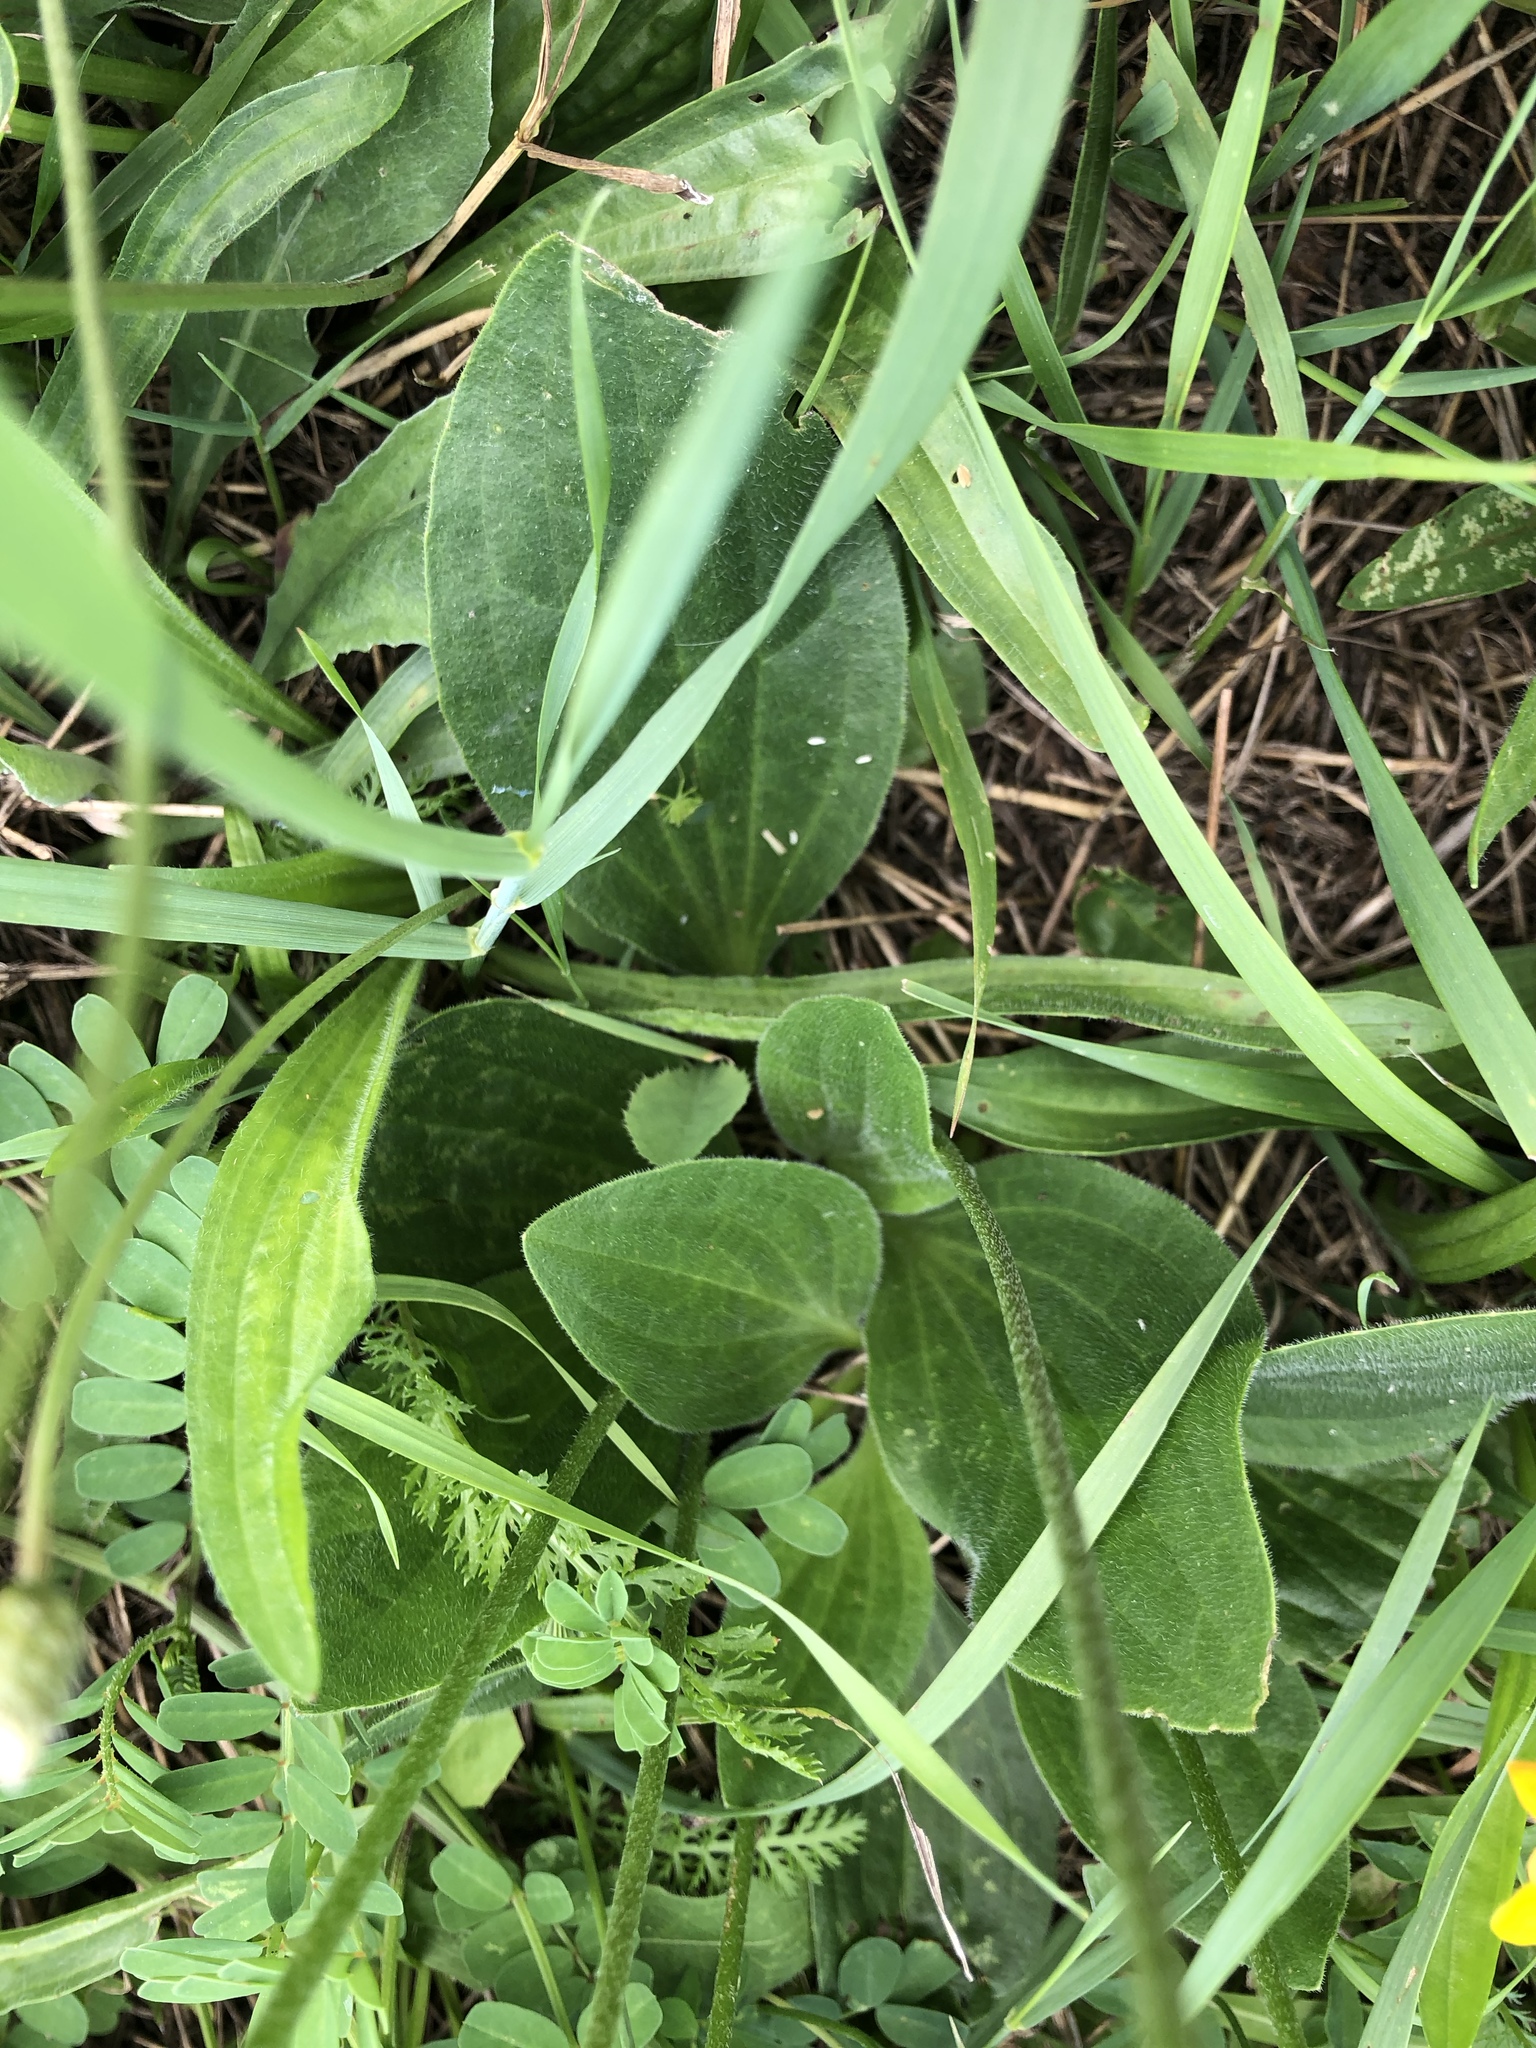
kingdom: Plantae
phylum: Tracheophyta
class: Magnoliopsida
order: Lamiales
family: Plantaginaceae
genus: Plantago
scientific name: Plantago media
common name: Hoary plantain
